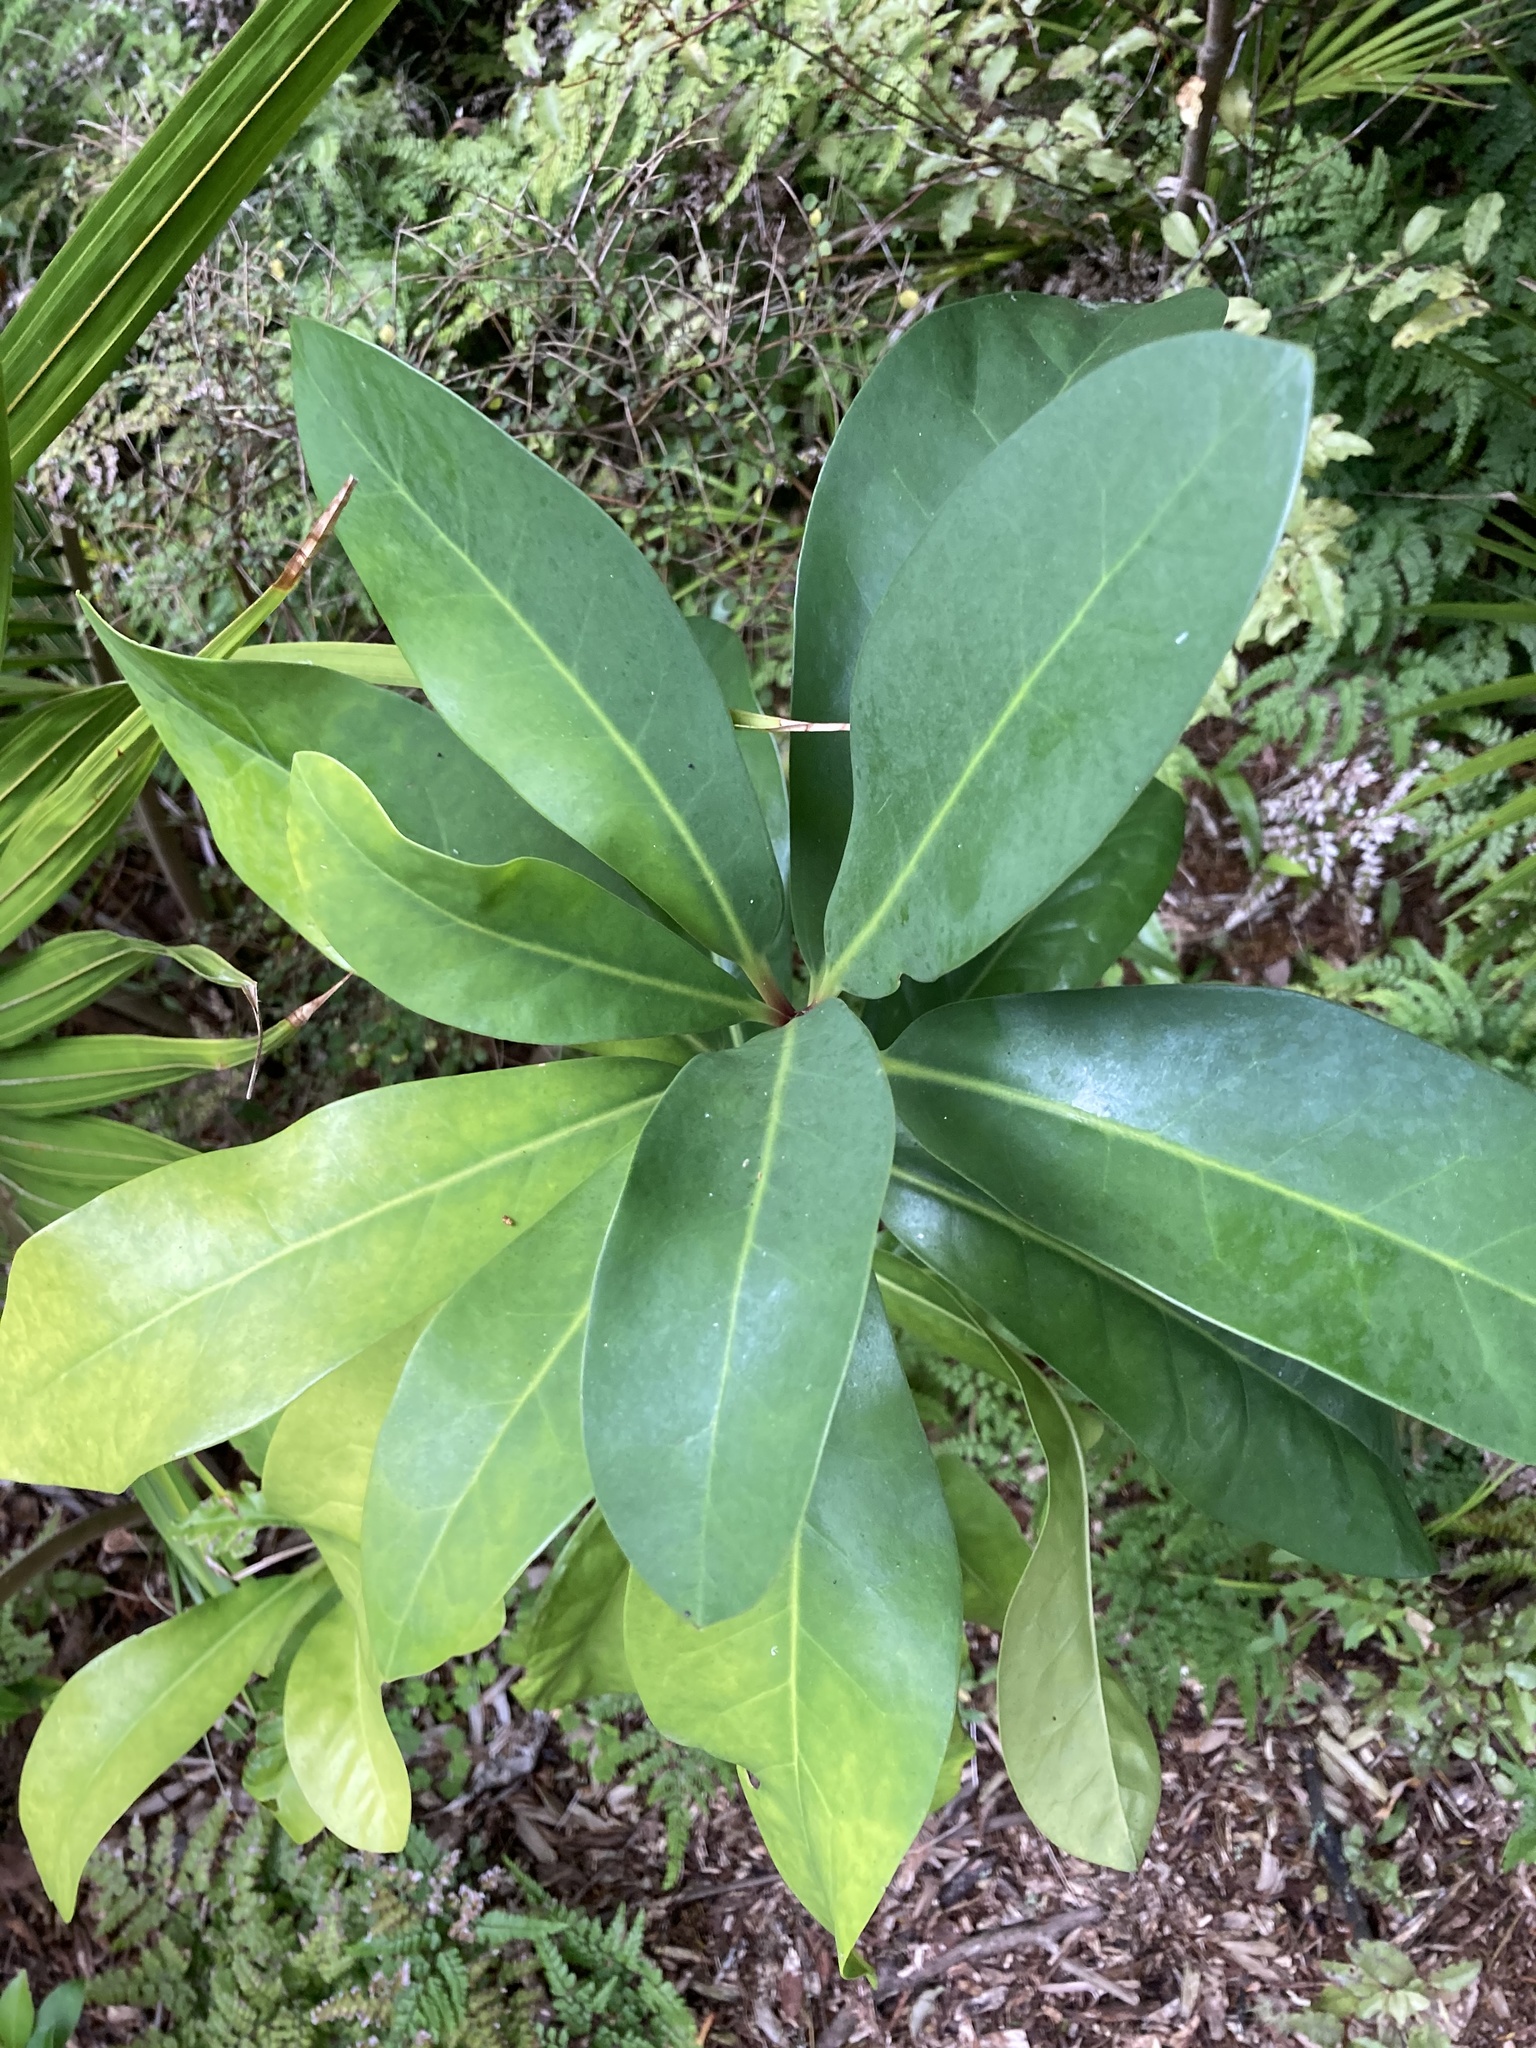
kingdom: Plantae
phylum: Tracheophyta
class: Magnoliopsida
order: Cucurbitales
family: Corynocarpaceae
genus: Corynocarpus
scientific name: Corynocarpus laevigatus
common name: New zealand laurel
